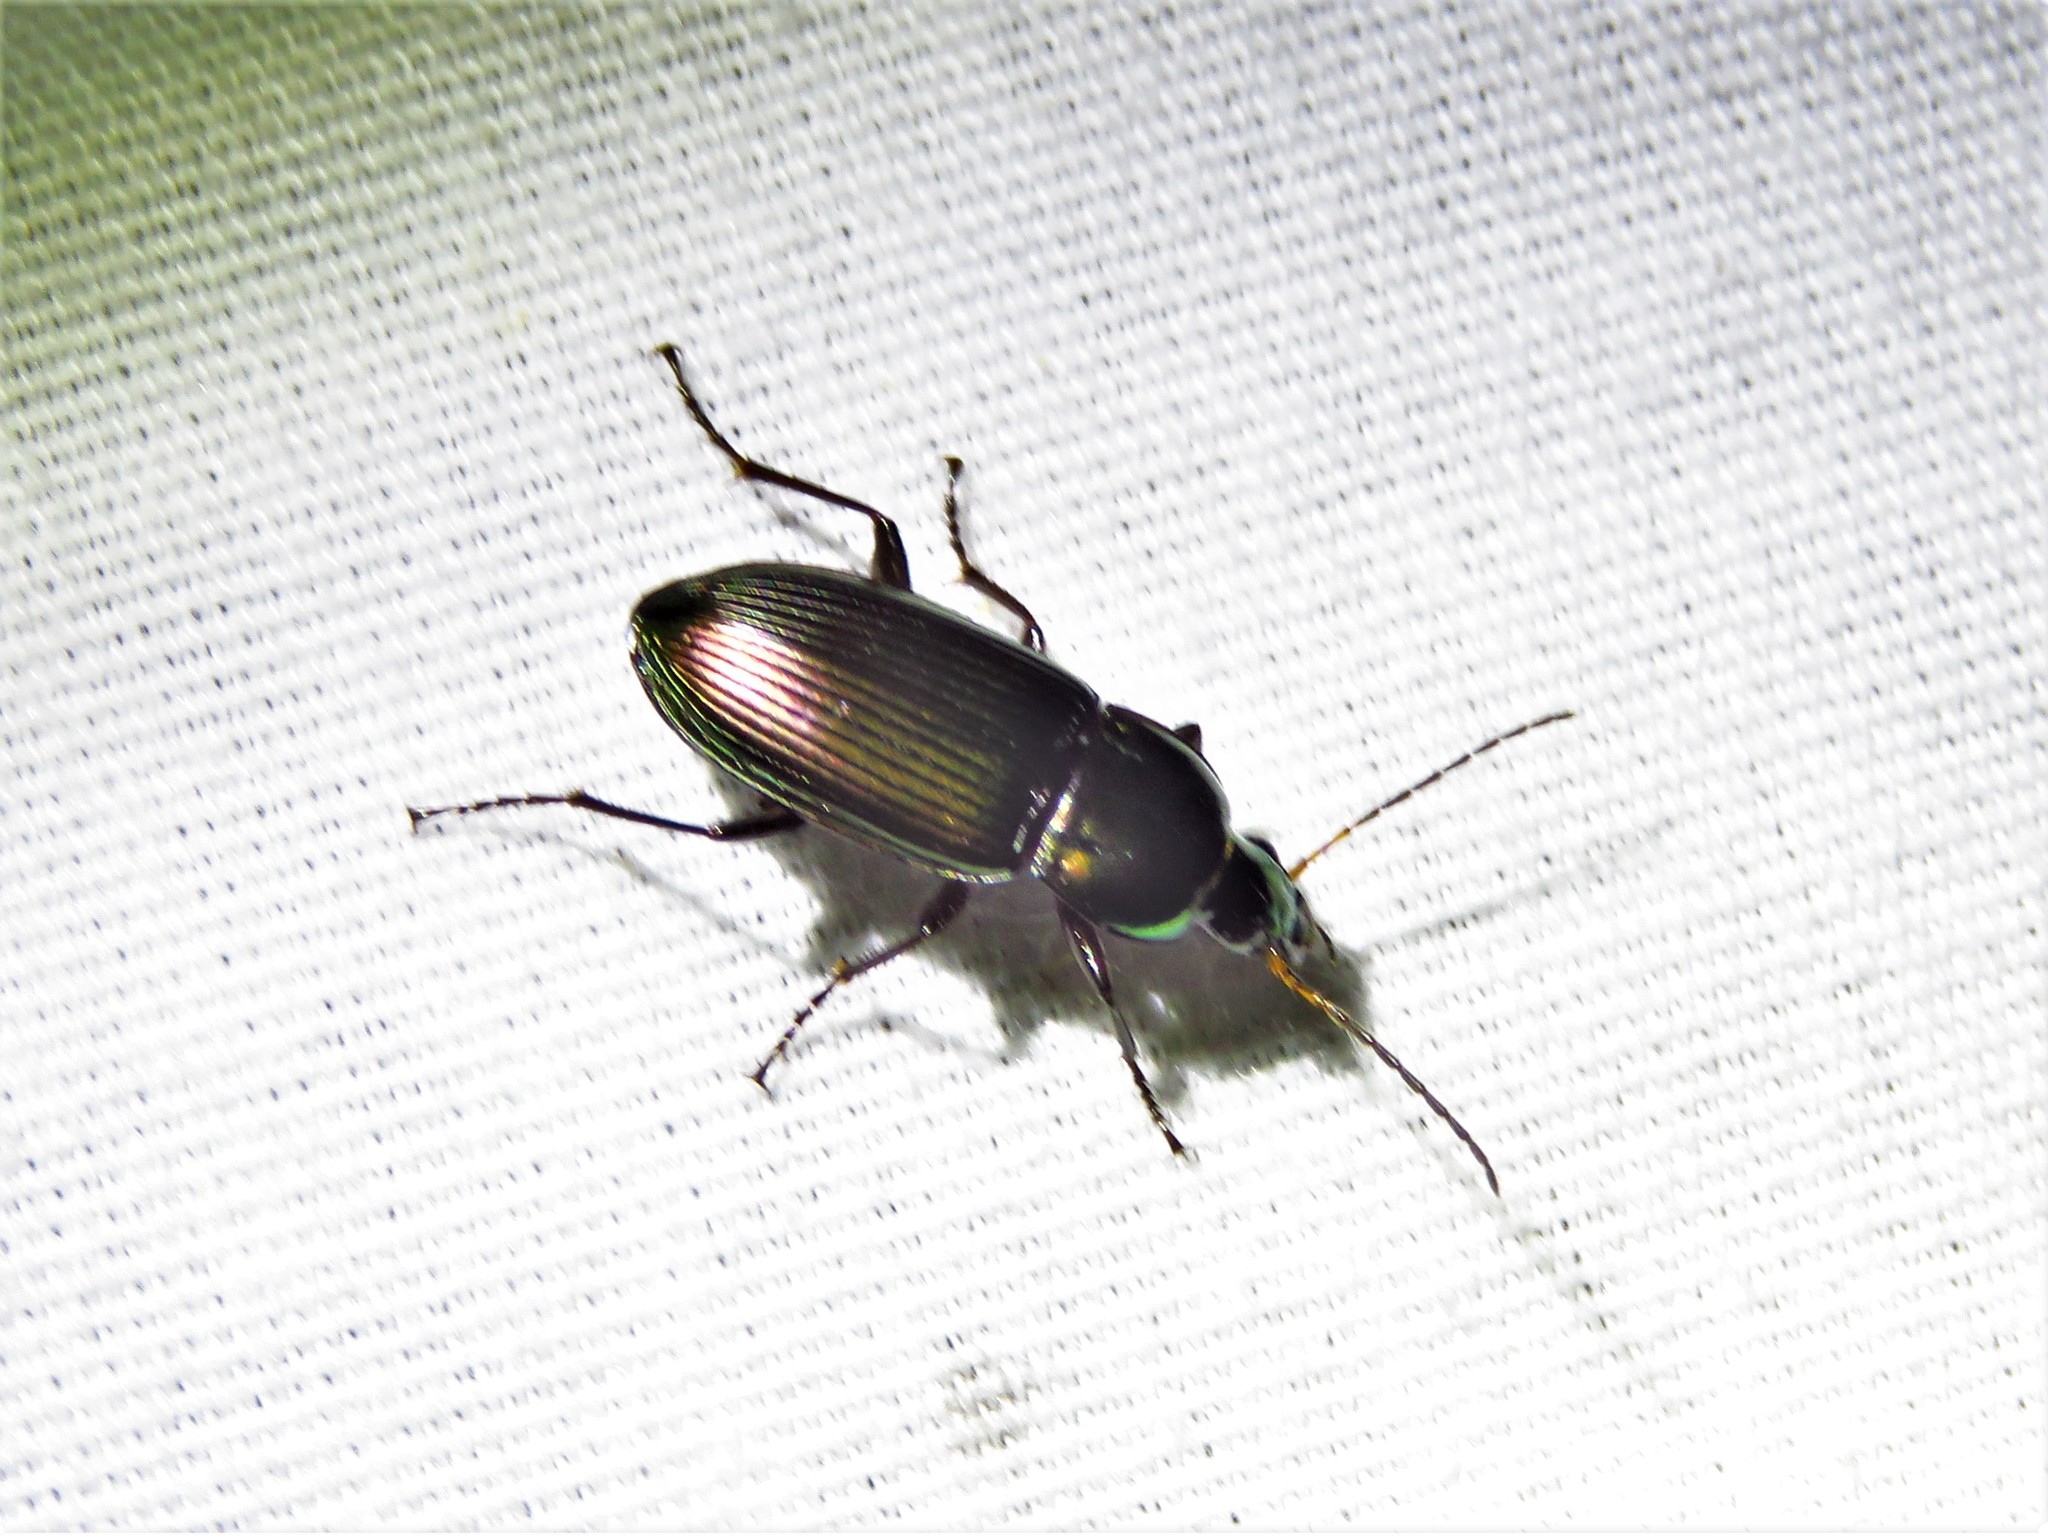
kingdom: Animalia
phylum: Arthropoda
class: Insecta
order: Coleoptera
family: Carabidae
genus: Poecilus
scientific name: Poecilus chalcites
